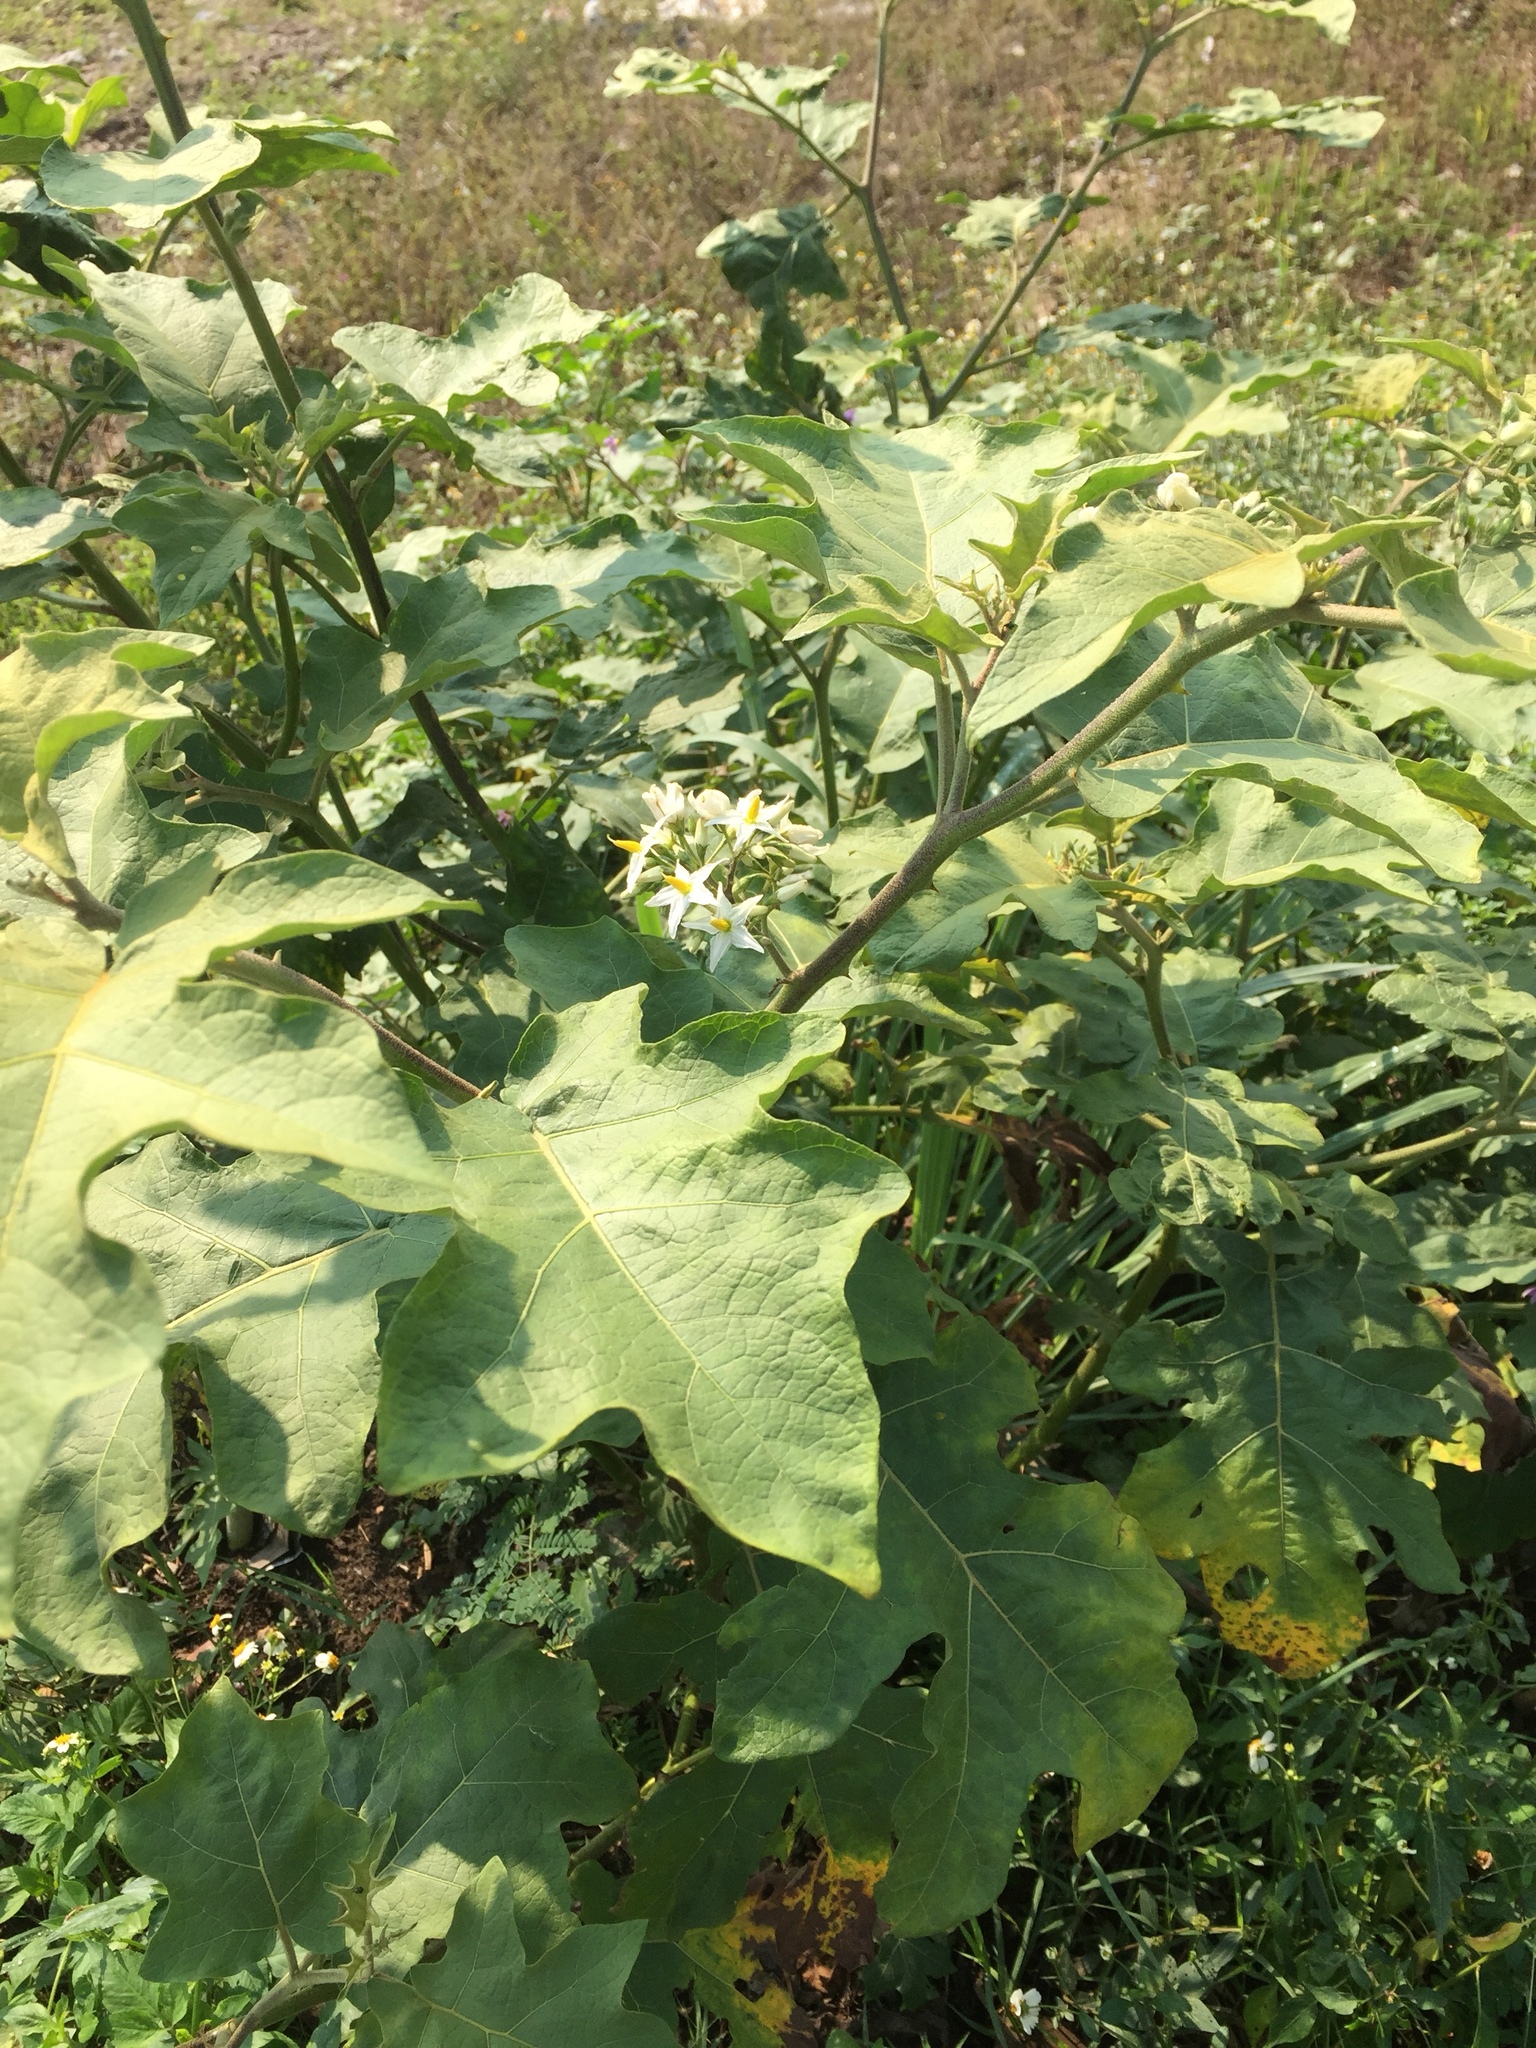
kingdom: Plantae
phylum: Tracheophyta
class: Magnoliopsida
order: Solanales
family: Solanaceae
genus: Solanum
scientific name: Solanum torvum
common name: Turkey berry
